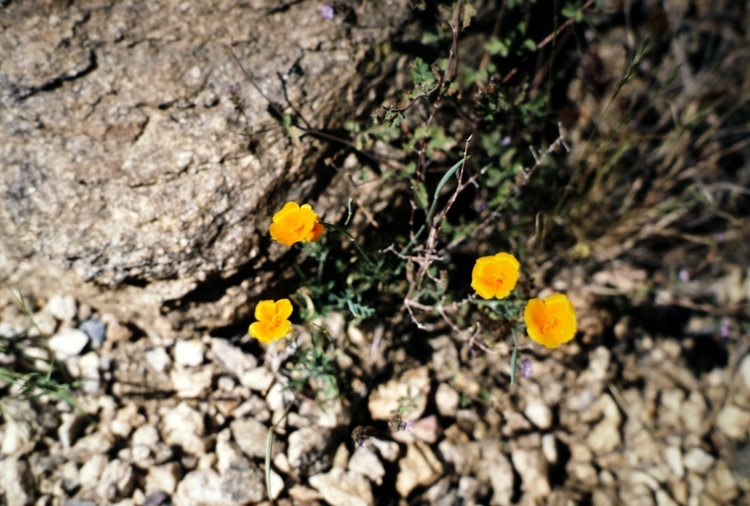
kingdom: Plantae
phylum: Tracheophyta
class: Magnoliopsida
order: Ranunculales
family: Papaveraceae
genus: Eschscholzia
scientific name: Eschscholzia californica
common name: California poppy
